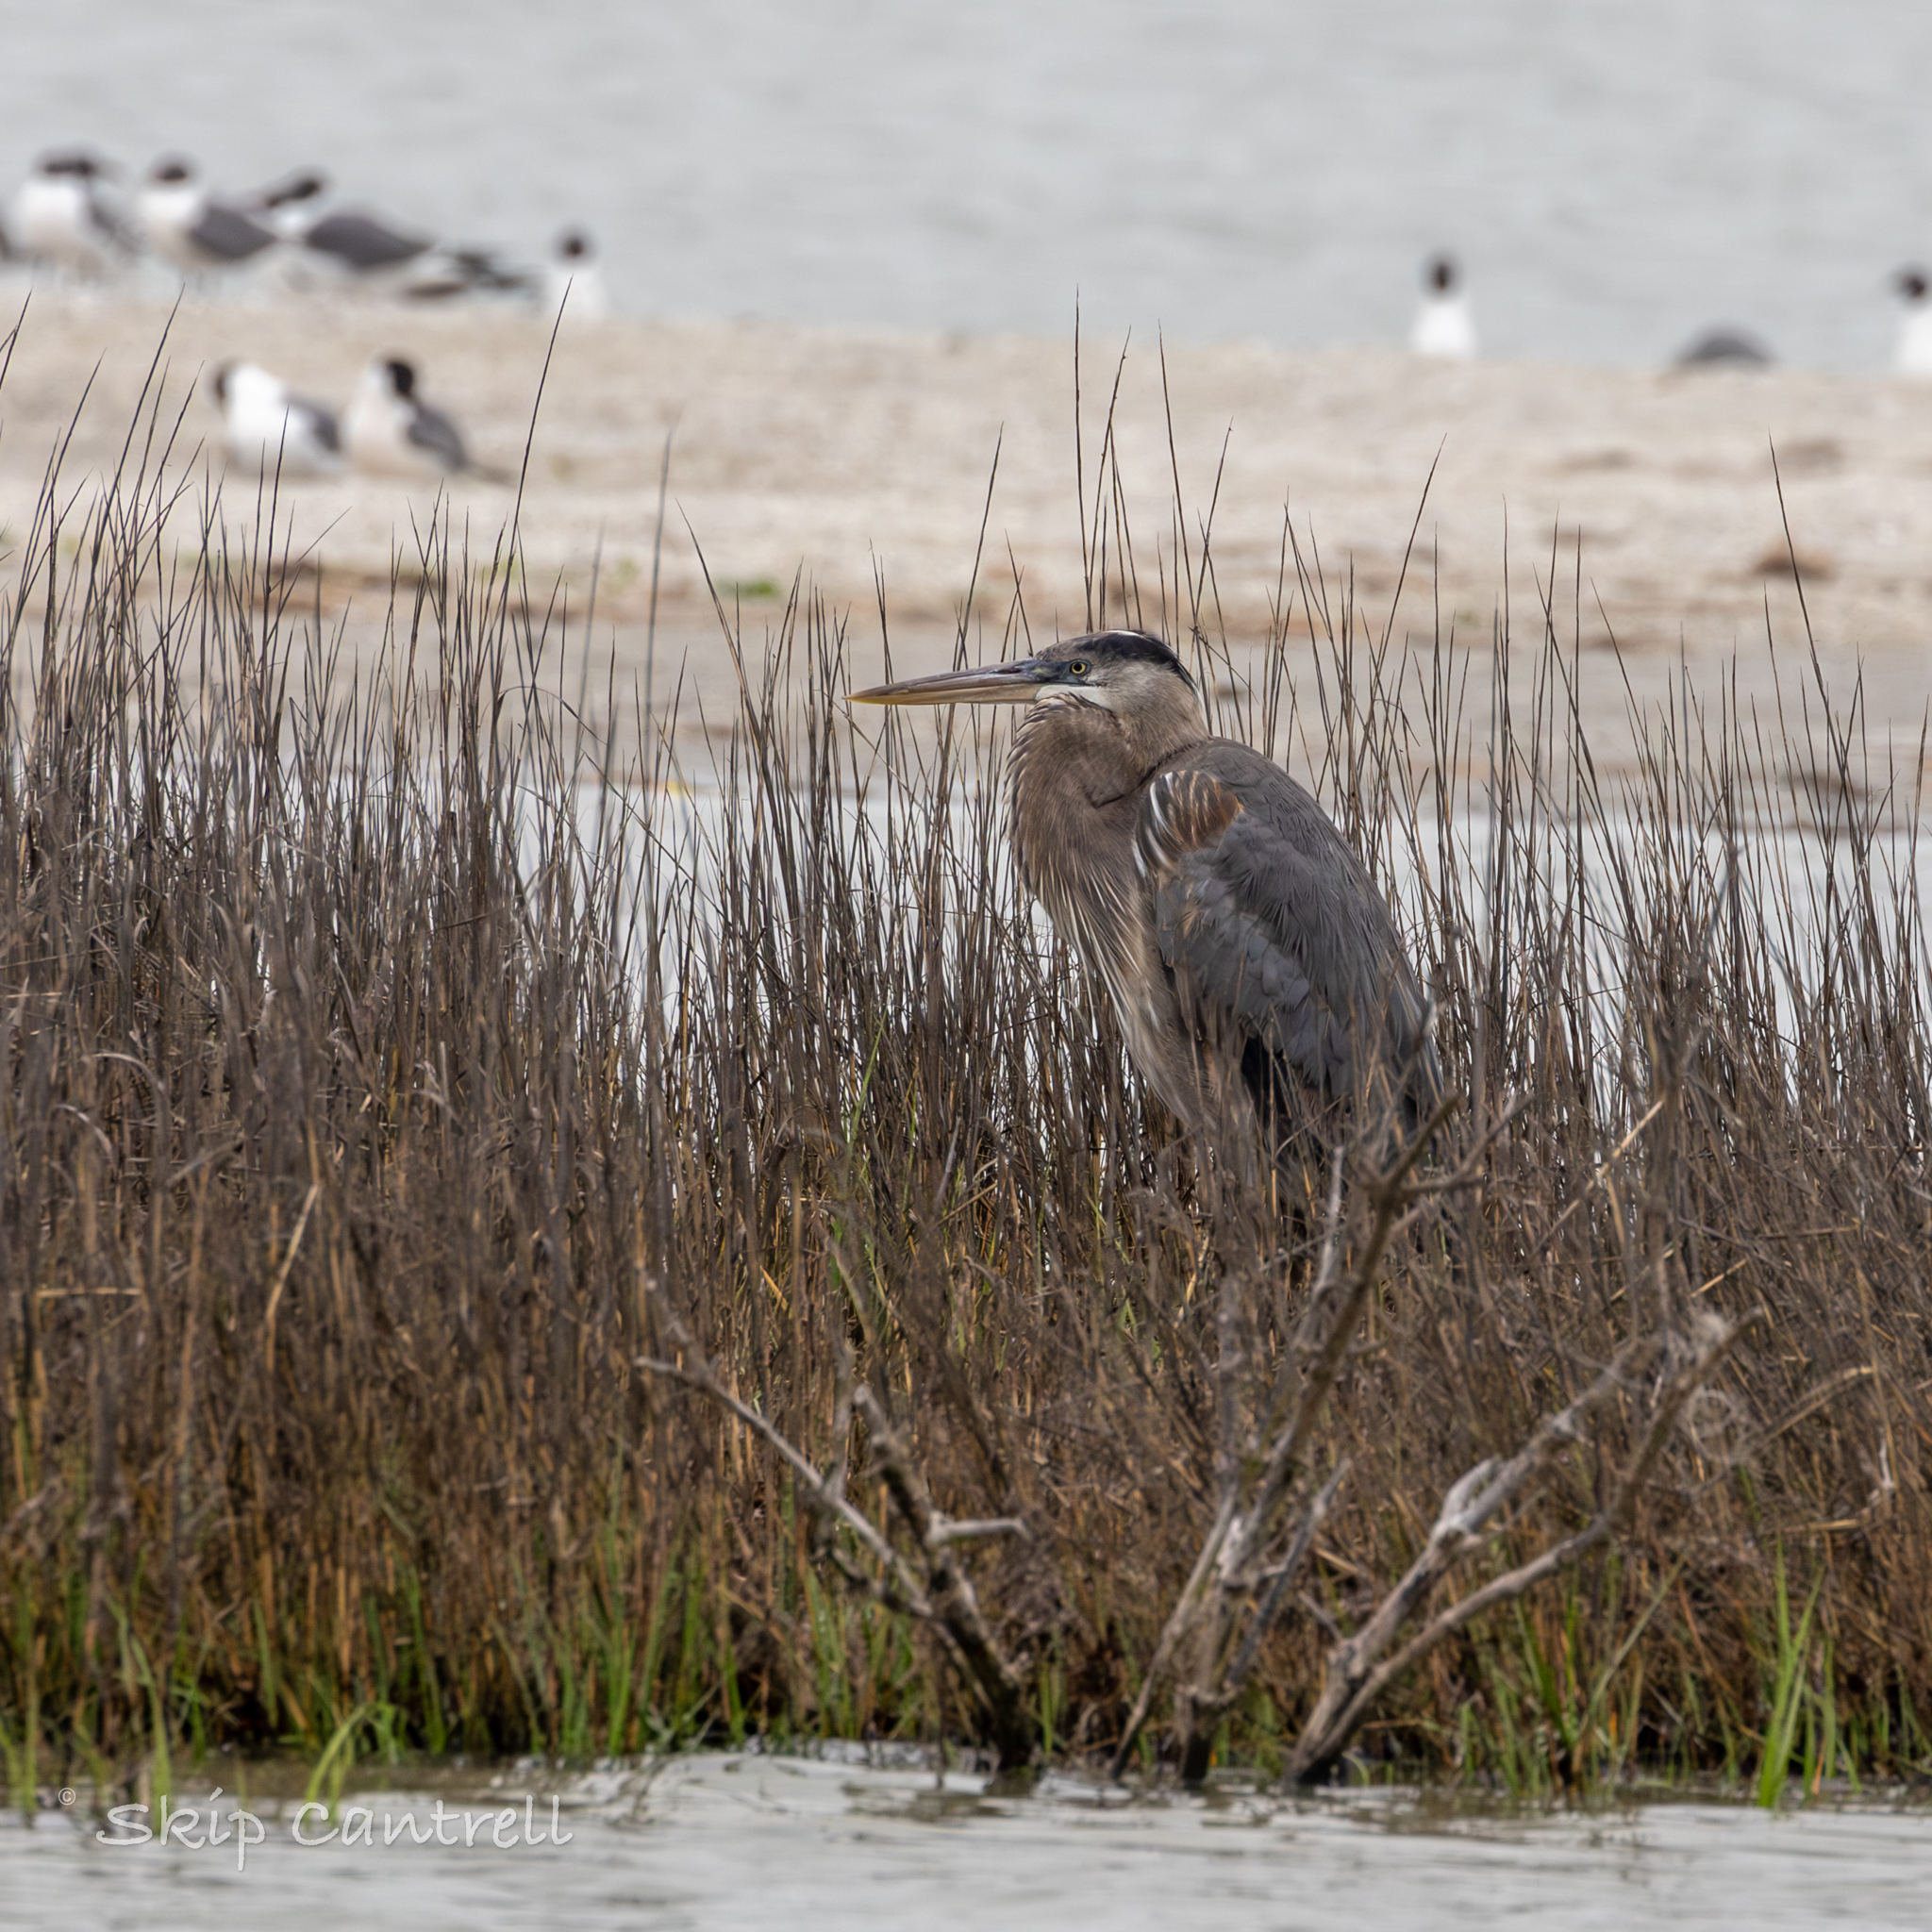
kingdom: Animalia
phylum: Chordata
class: Aves
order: Pelecaniformes
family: Ardeidae
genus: Ardea
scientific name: Ardea herodias
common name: Great blue heron
